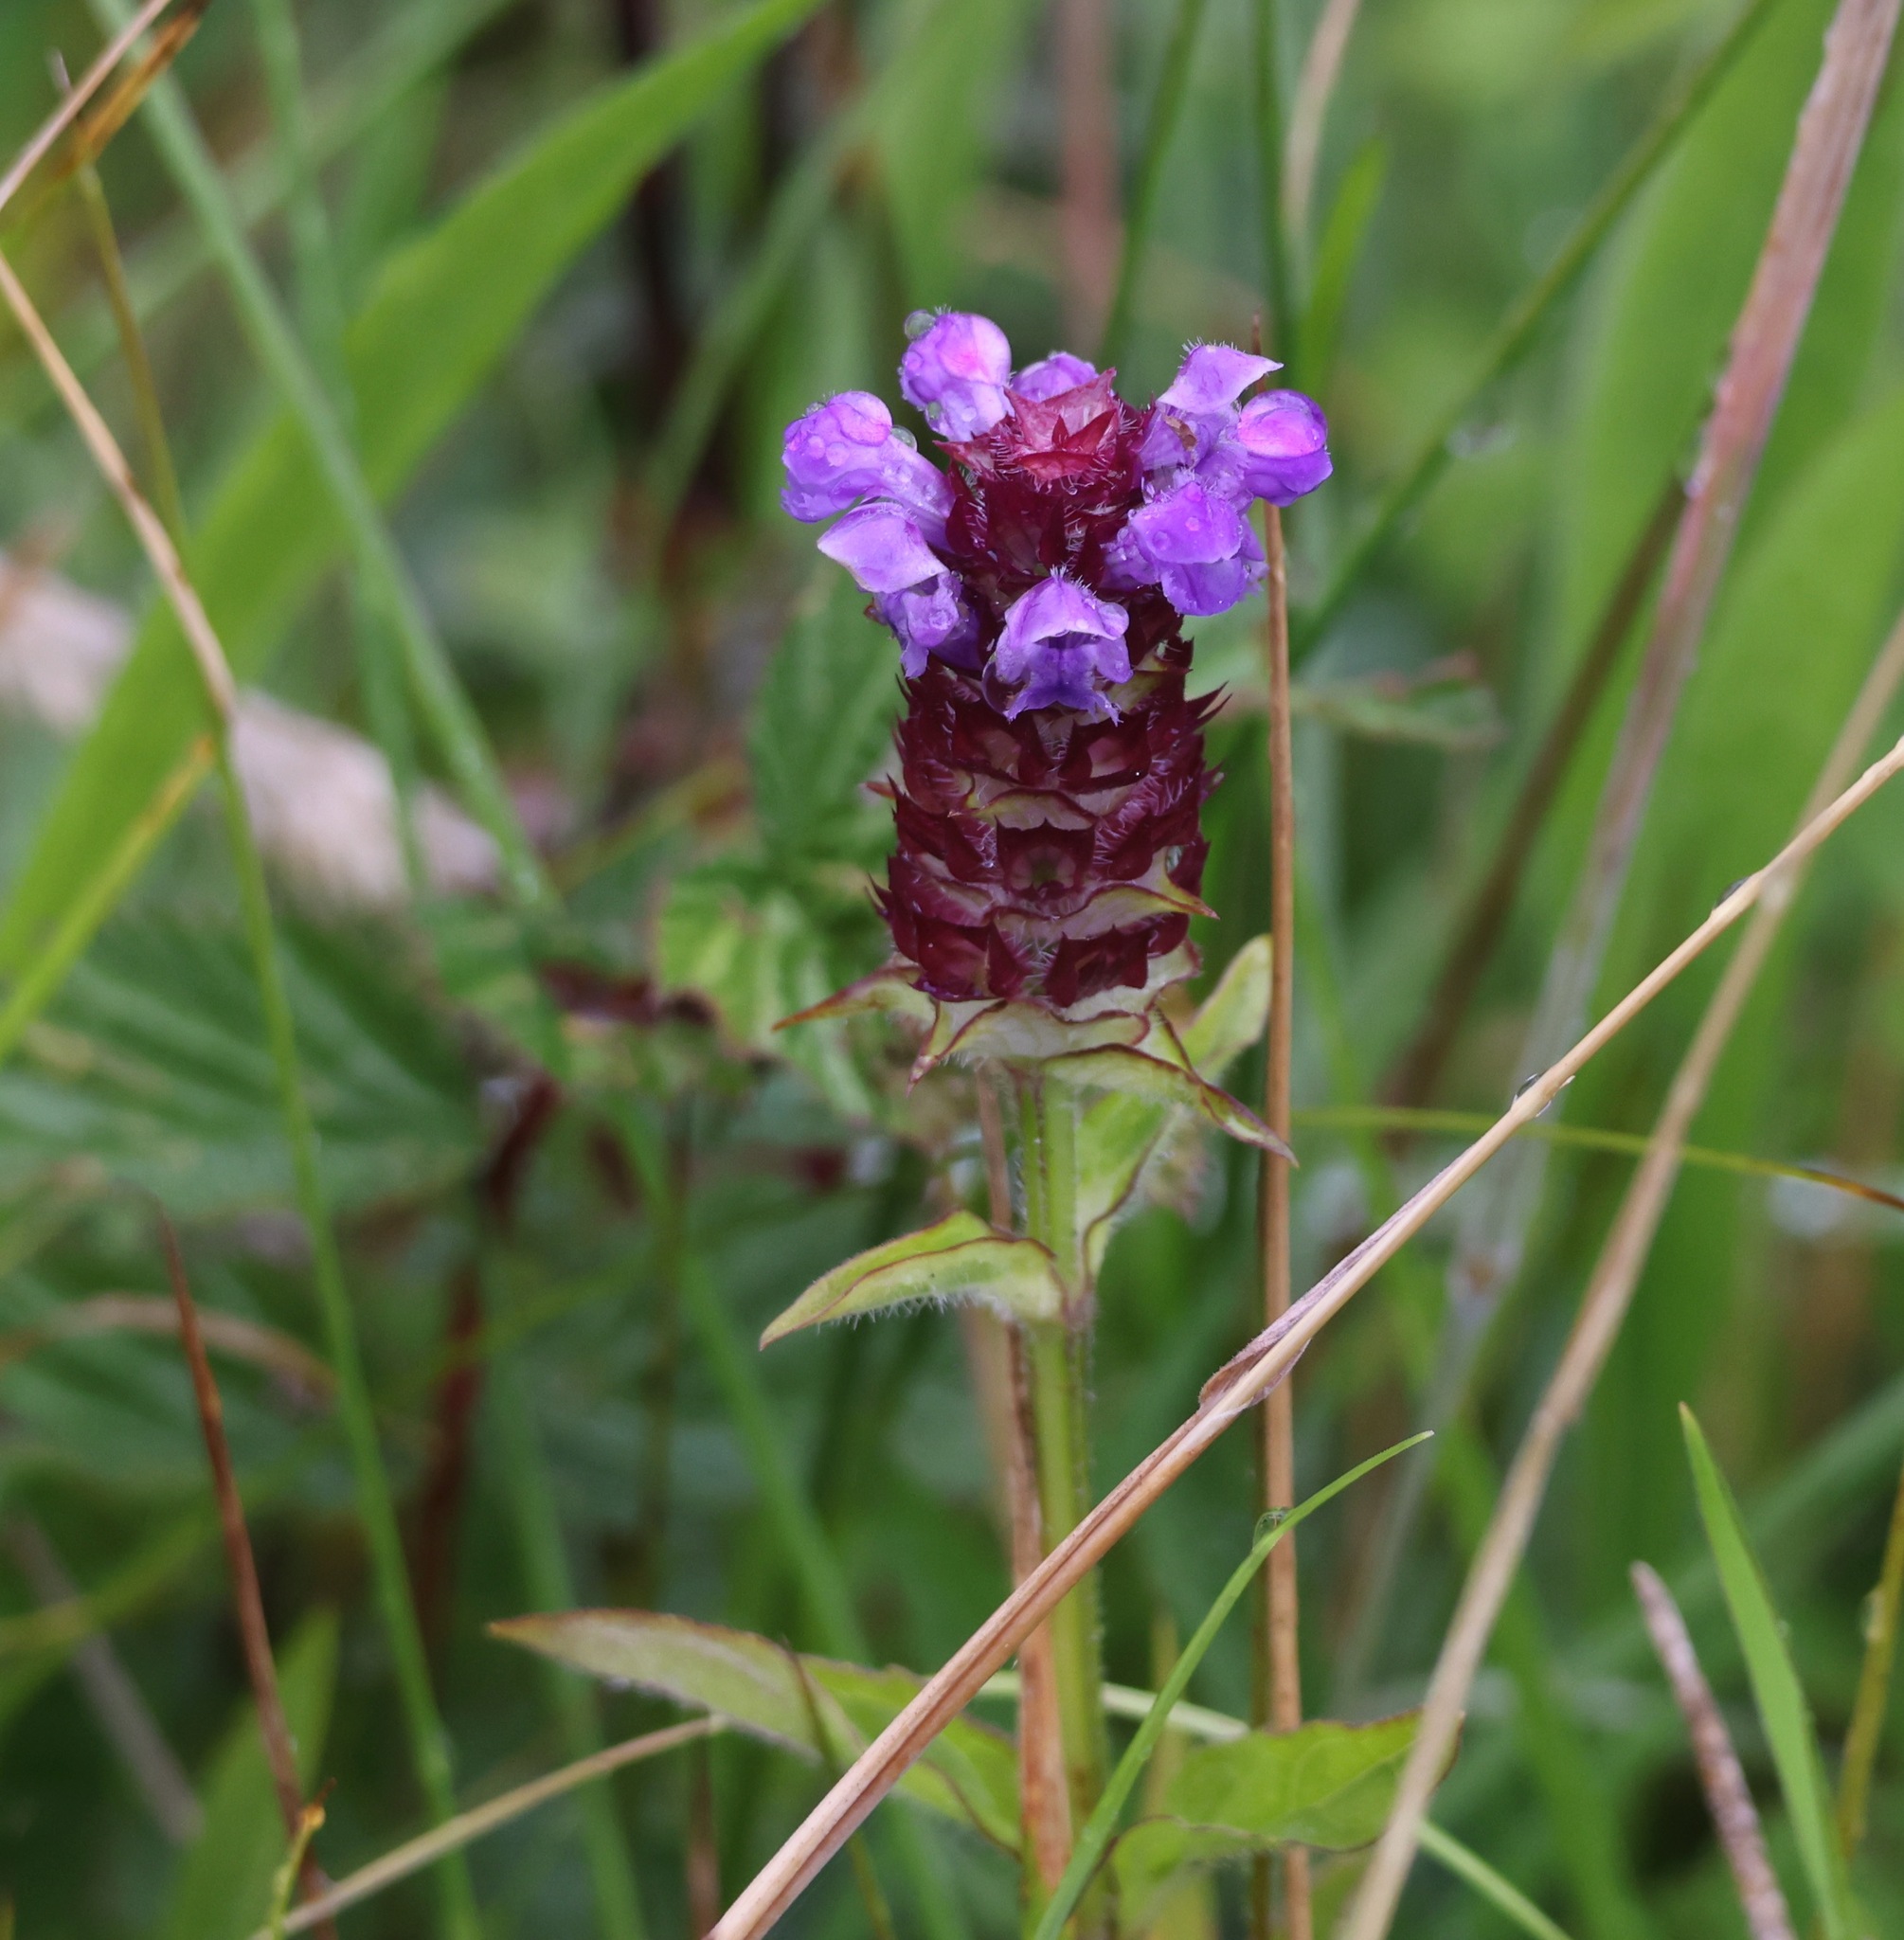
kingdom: Plantae
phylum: Tracheophyta
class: Magnoliopsida
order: Lamiales
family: Lamiaceae
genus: Prunella
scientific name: Prunella vulgaris
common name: Heal-all
